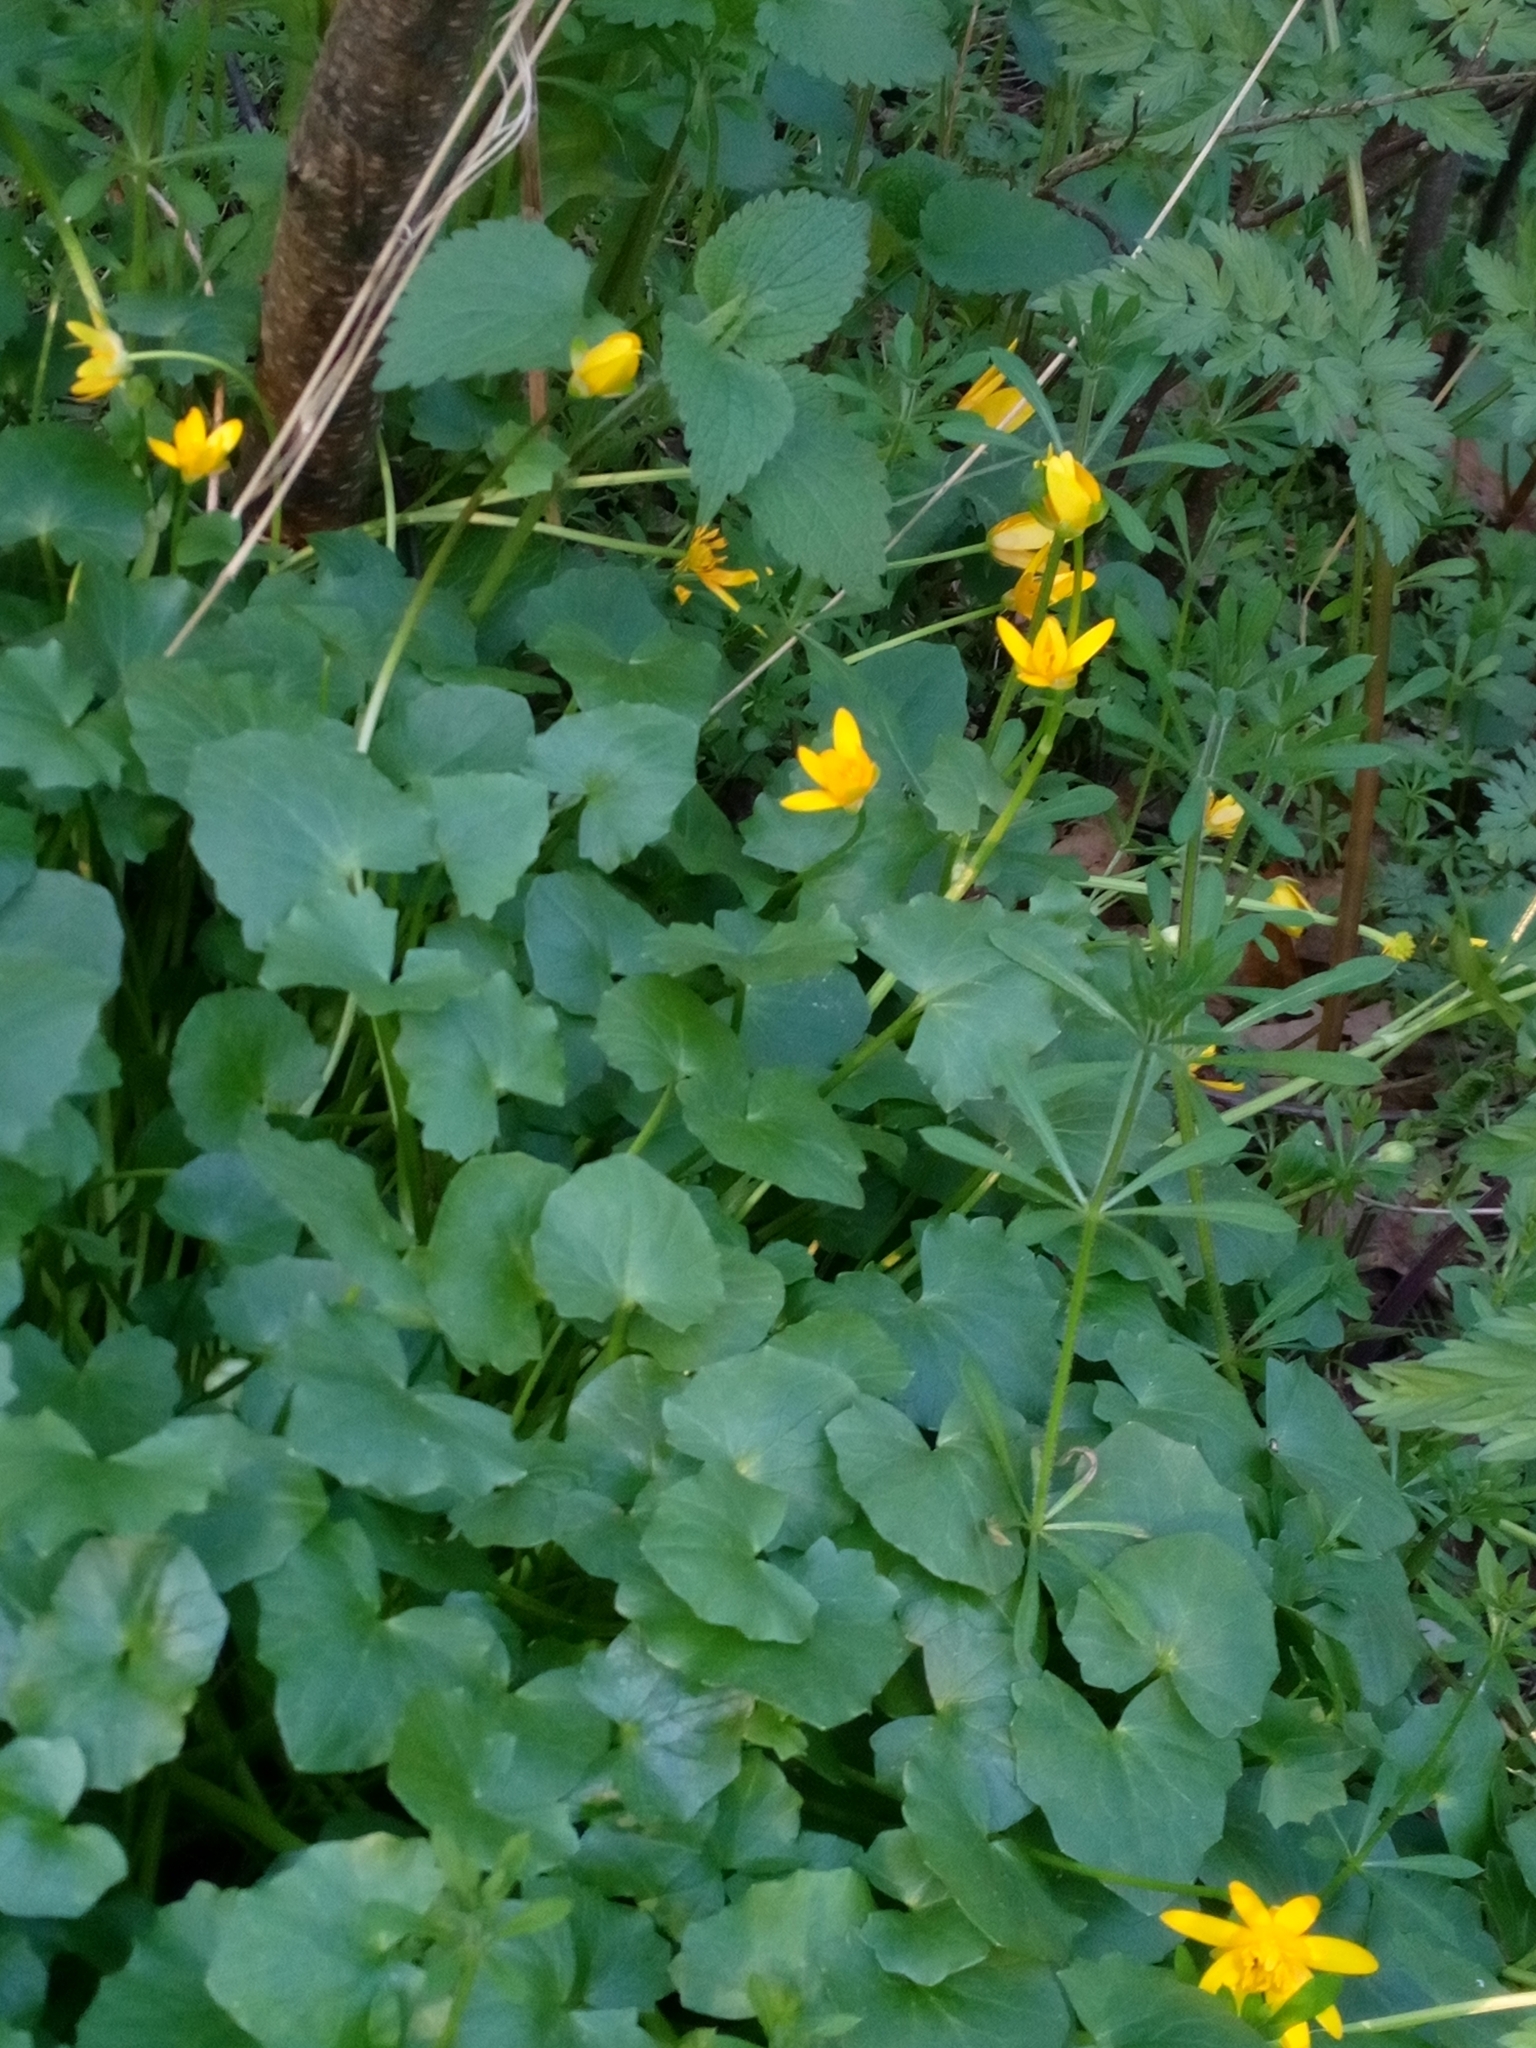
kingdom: Plantae
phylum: Tracheophyta
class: Magnoliopsida
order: Ranunculales
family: Ranunculaceae
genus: Ficaria
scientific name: Ficaria verna
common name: Lesser celandine
